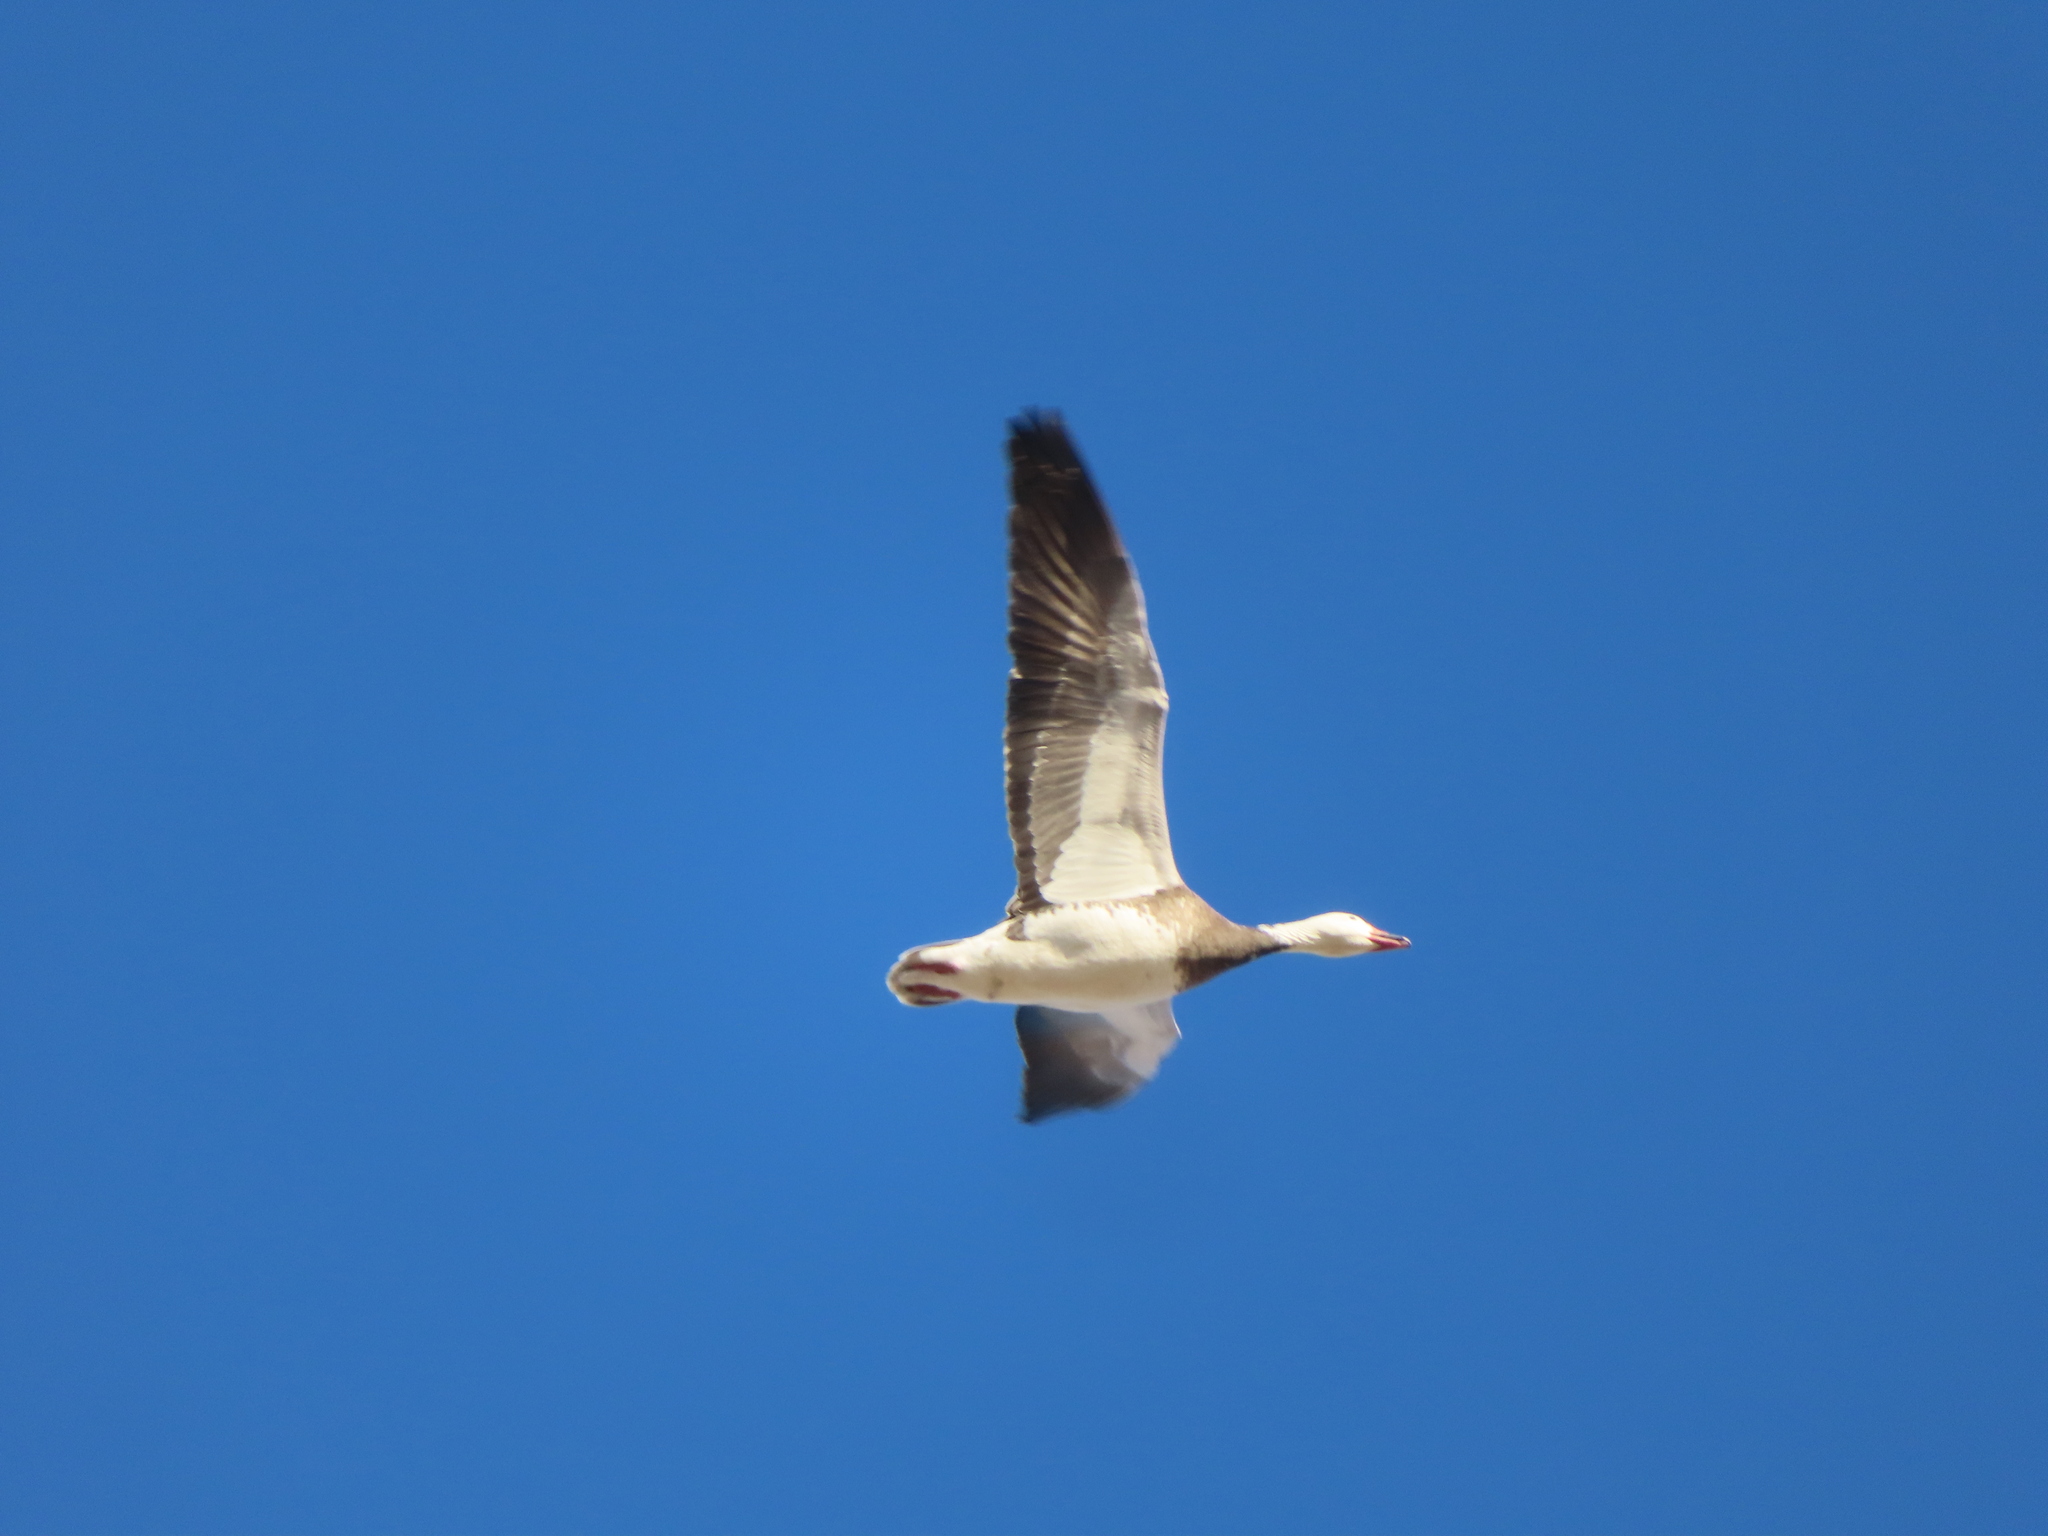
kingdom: Animalia
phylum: Chordata
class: Aves
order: Anseriformes
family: Anatidae
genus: Anser
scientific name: Anser caerulescens
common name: Snow goose
